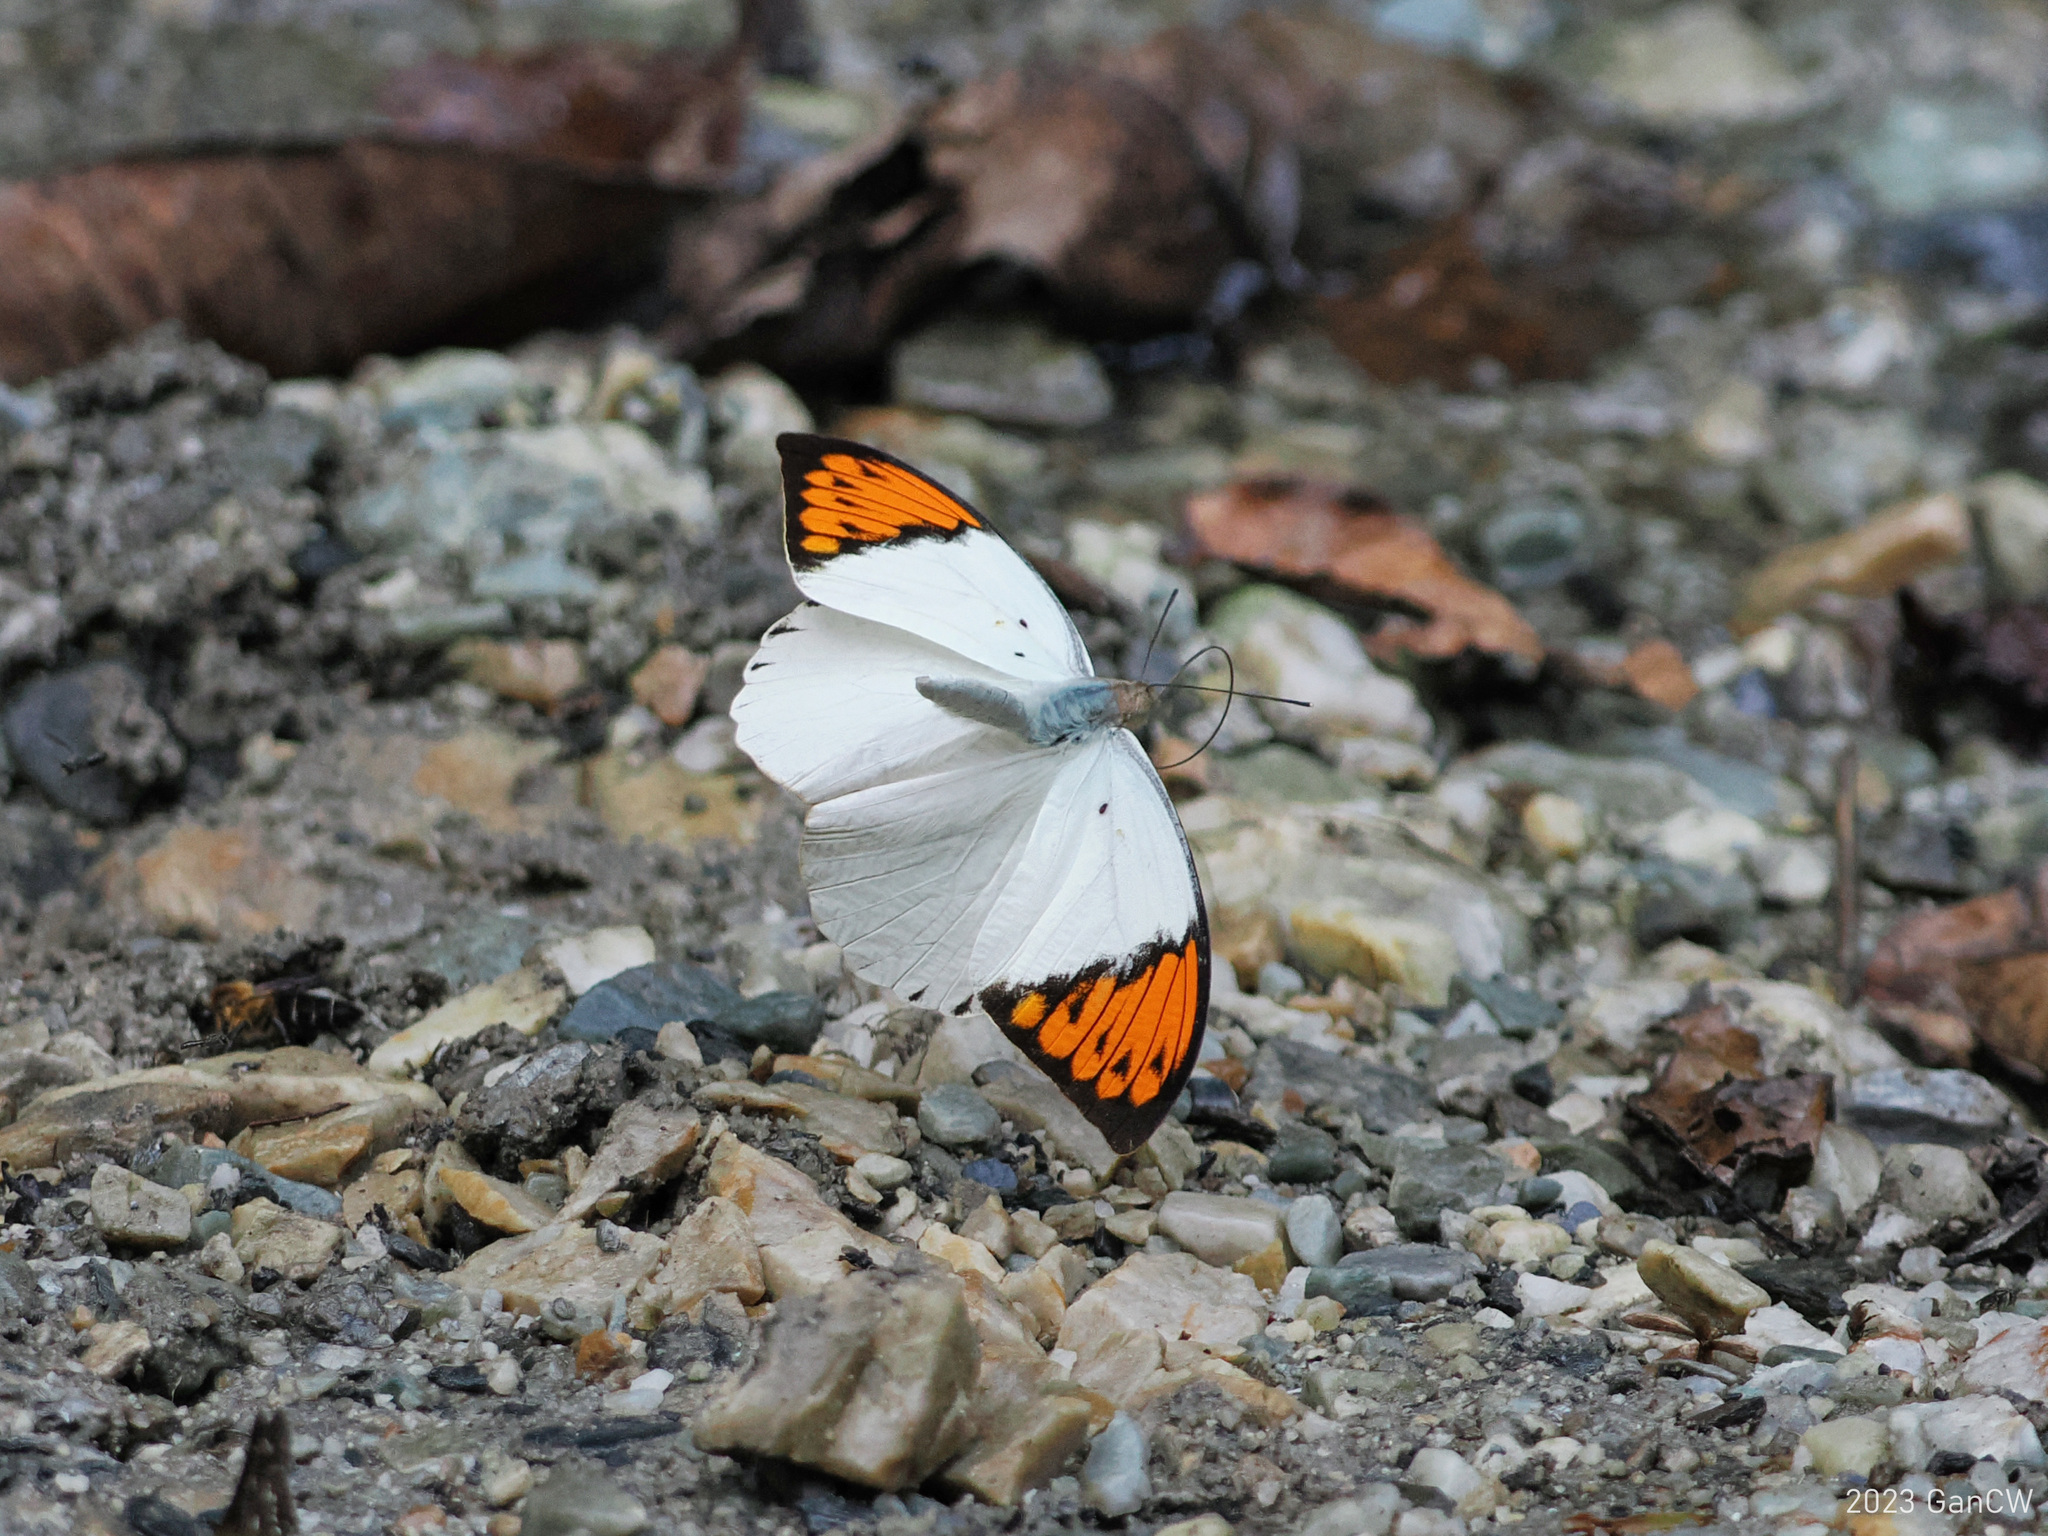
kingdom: Animalia
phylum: Arthropoda
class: Insecta
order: Lepidoptera
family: Pieridae
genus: Hebomoia
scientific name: Hebomoia glaucippe
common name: Great orange tip
